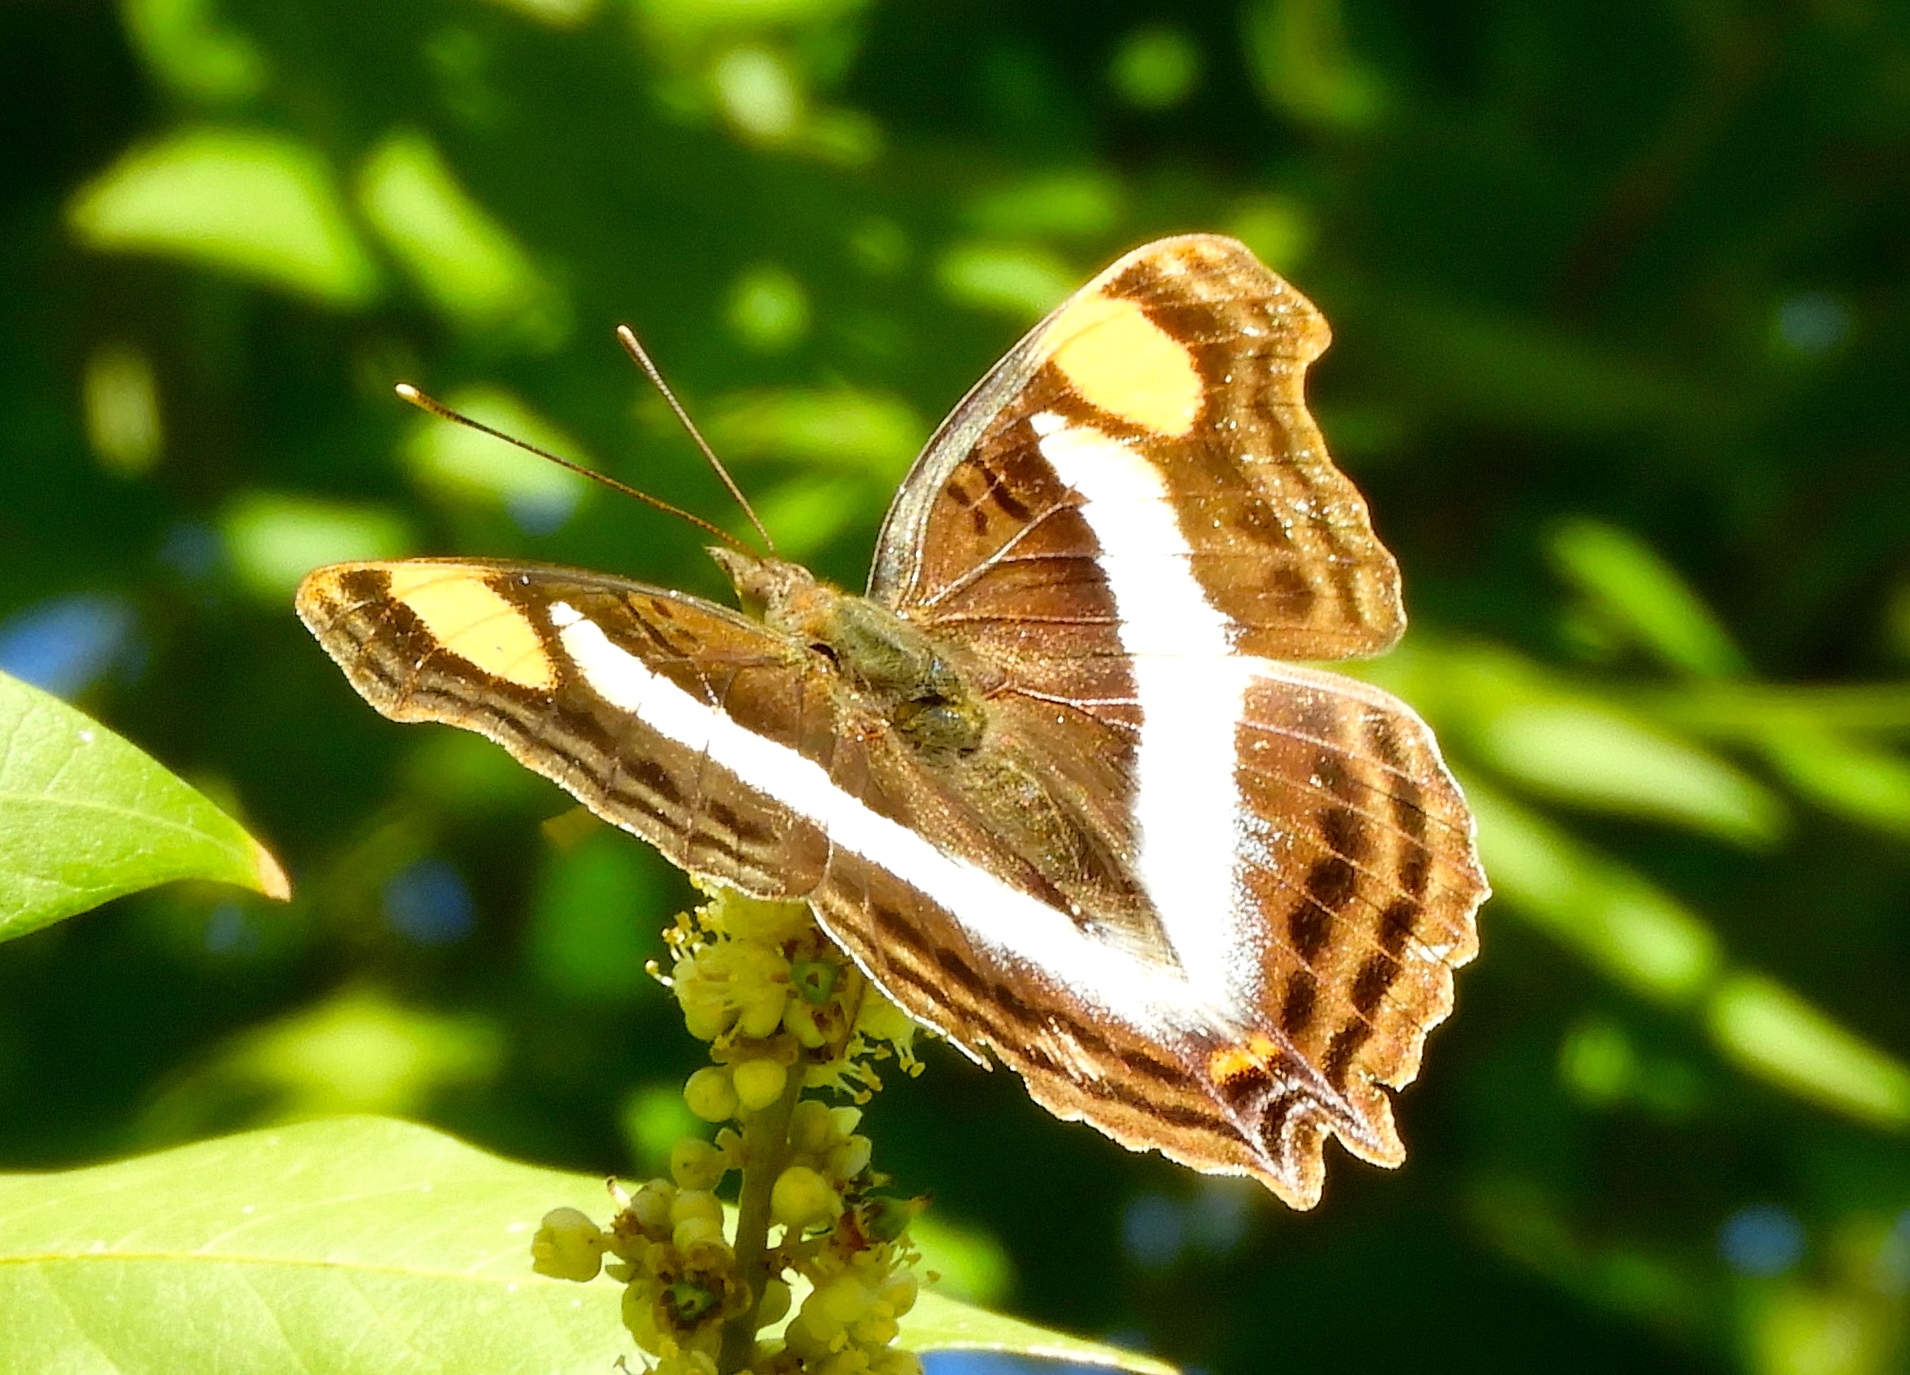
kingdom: Animalia
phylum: Arthropoda
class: Insecta
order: Lepidoptera
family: Nymphalidae
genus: Doxocopa
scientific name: Doxocopa laure
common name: Silver emperor
